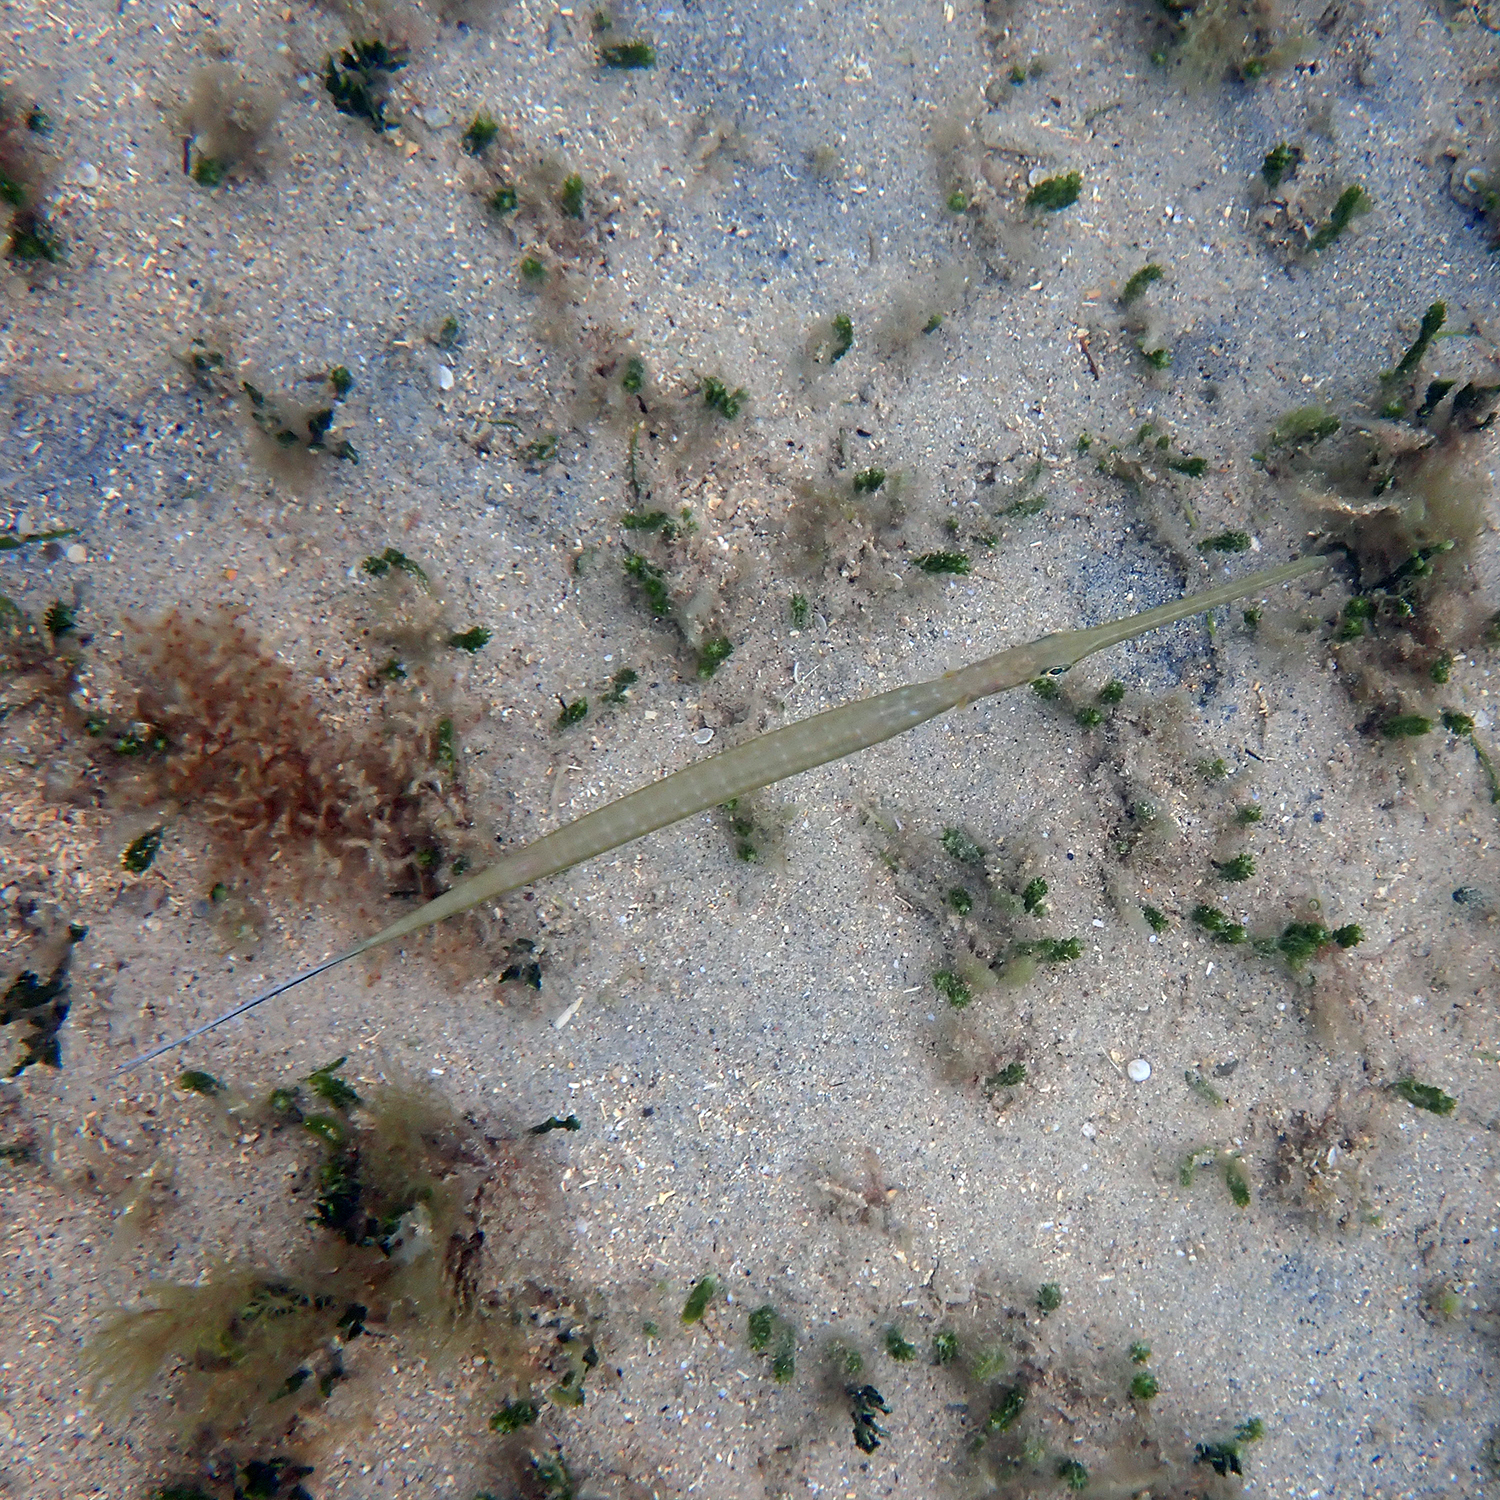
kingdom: Animalia
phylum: Chordata
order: Syngnathiformes
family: Fistulariidae
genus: Fistularia
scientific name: Fistularia commersonii
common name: Bluespotted cornetfish
